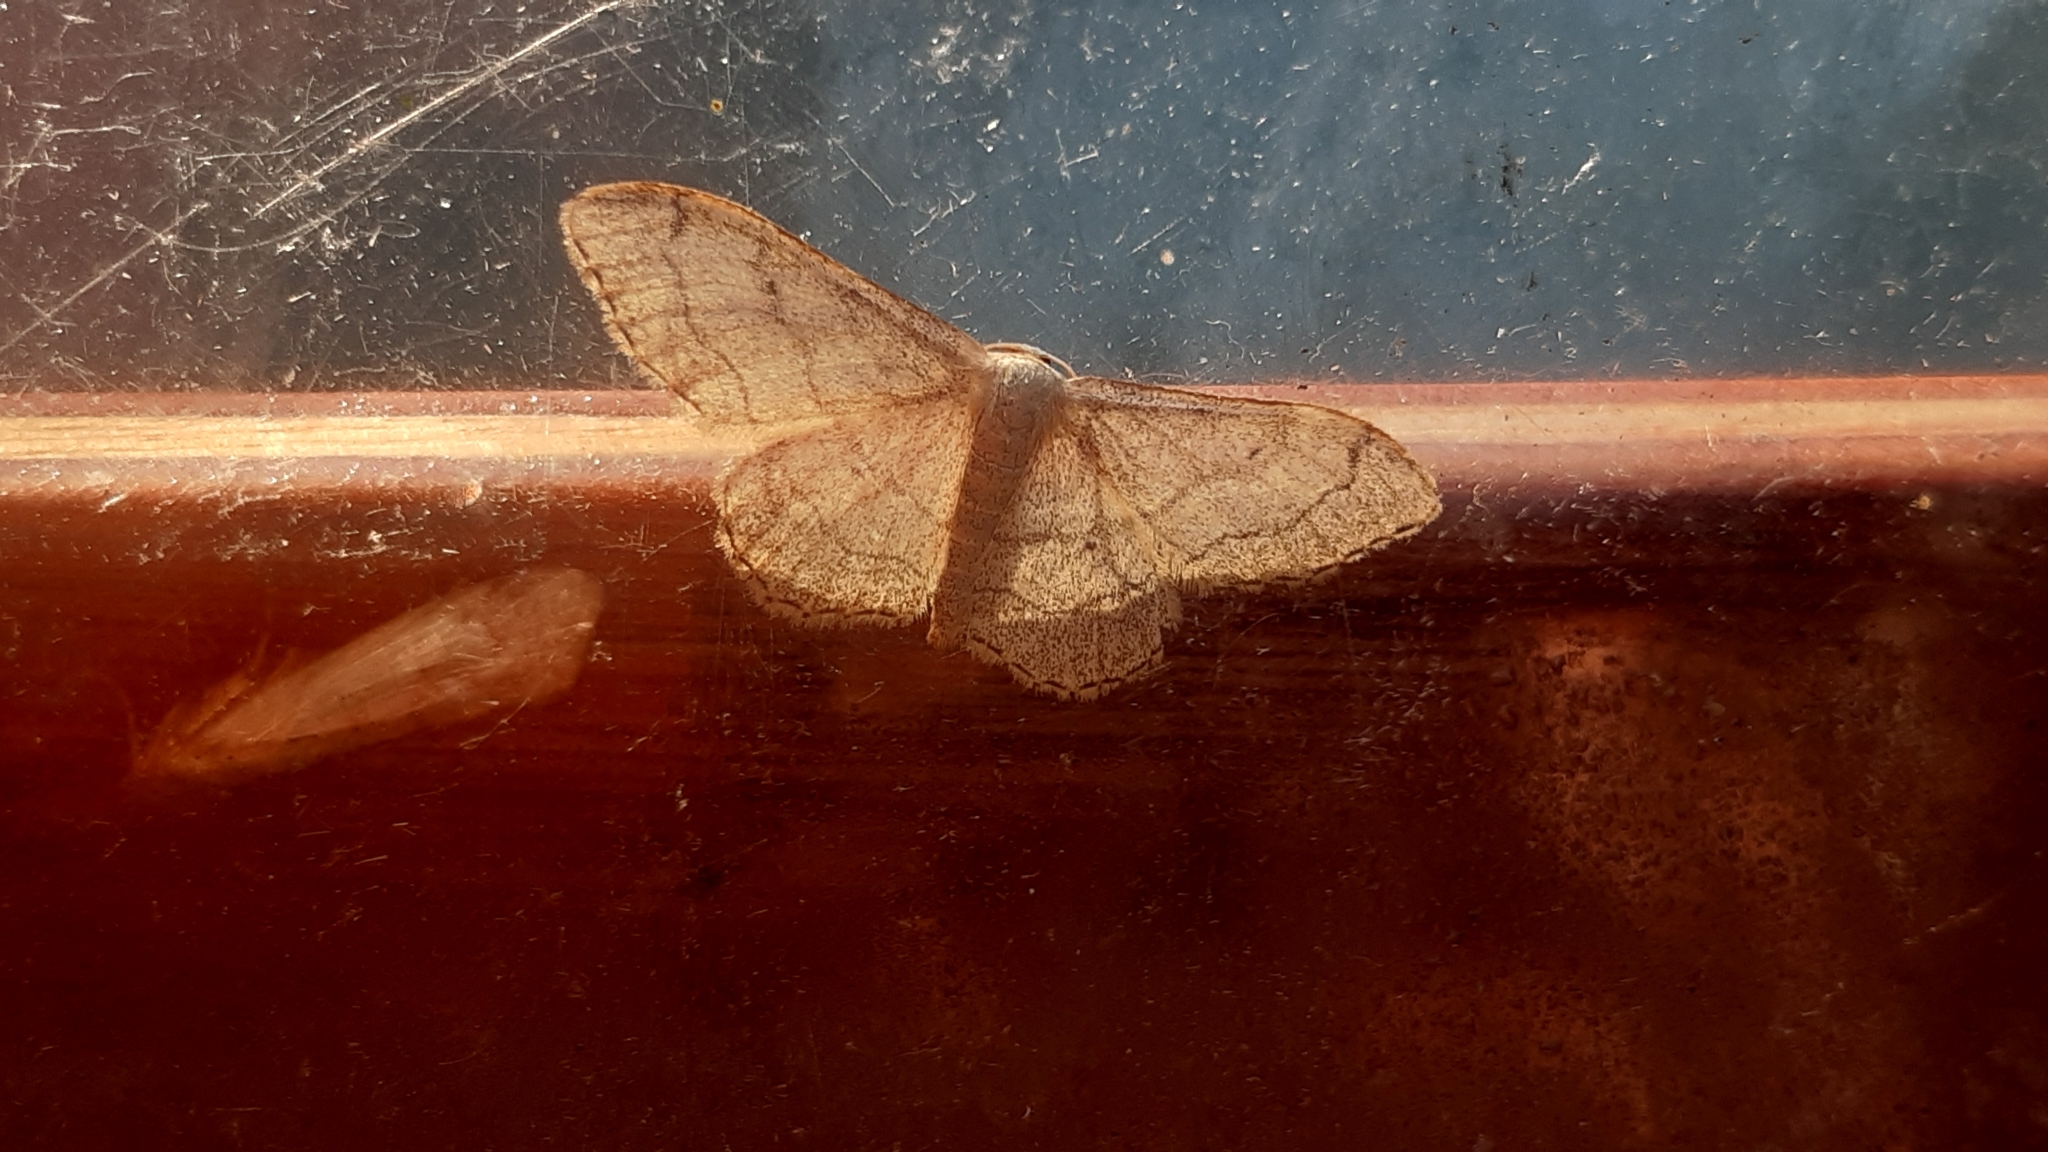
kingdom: Animalia
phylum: Arthropoda
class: Insecta
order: Lepidoptera
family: Geometridae
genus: Idaea
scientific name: Idaea aversata
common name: Riband wave
